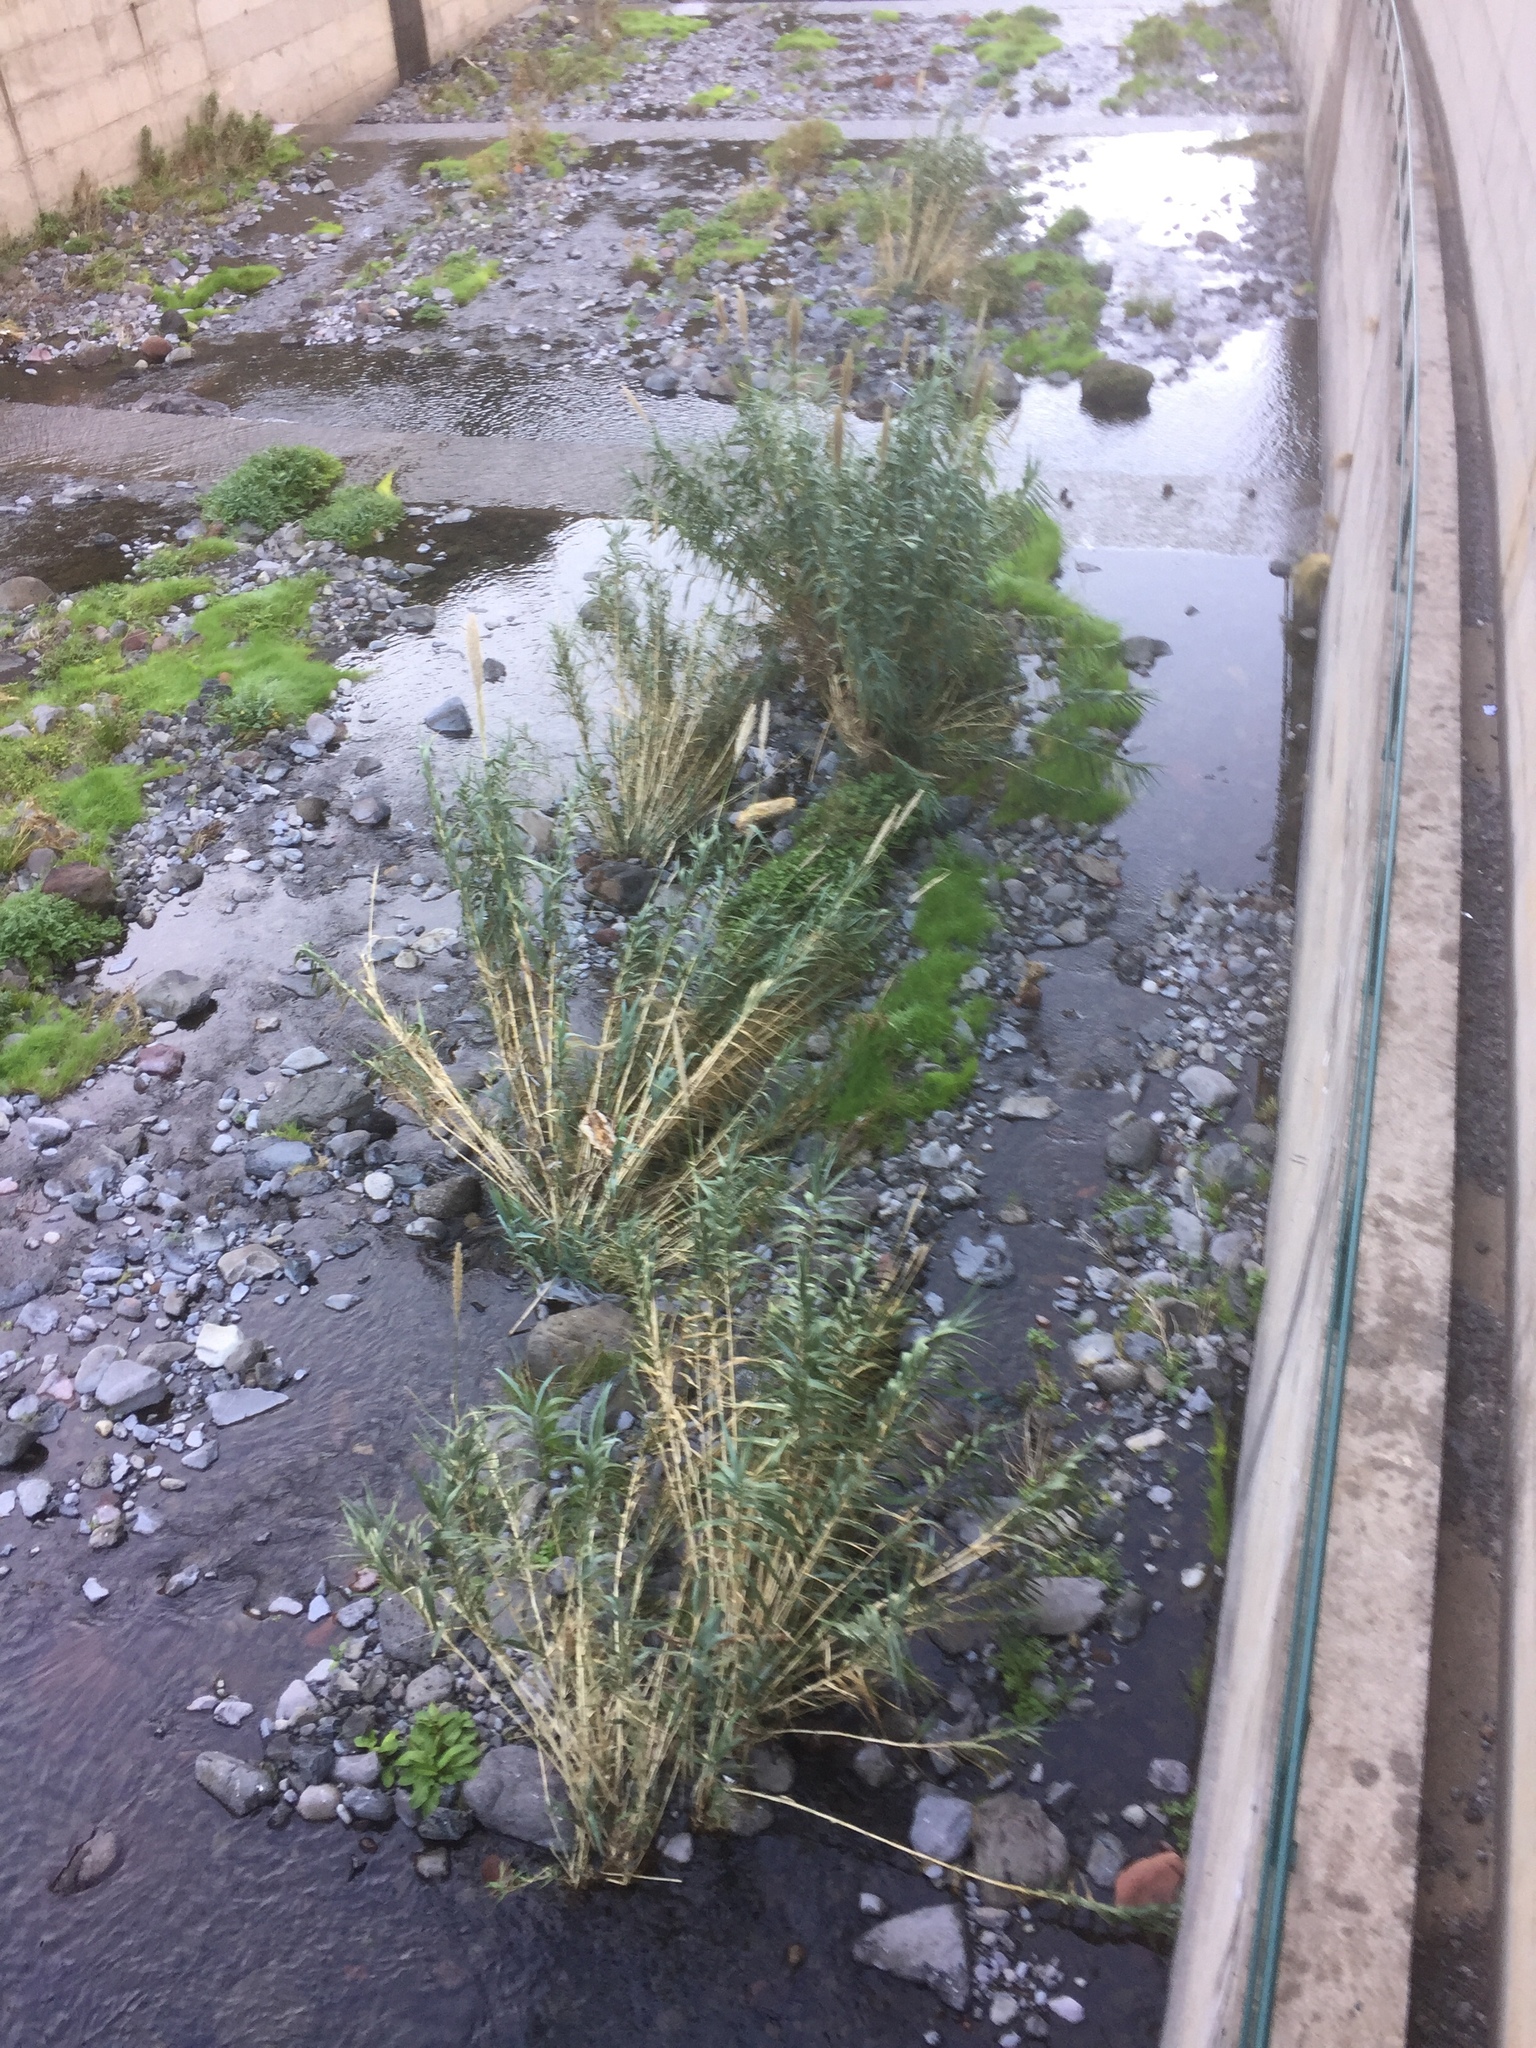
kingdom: Plantae
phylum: Tracheophyta
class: Liliopsida
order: Poales
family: Poaceae
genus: Arundo
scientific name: Arundo donax
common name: Giant reed
